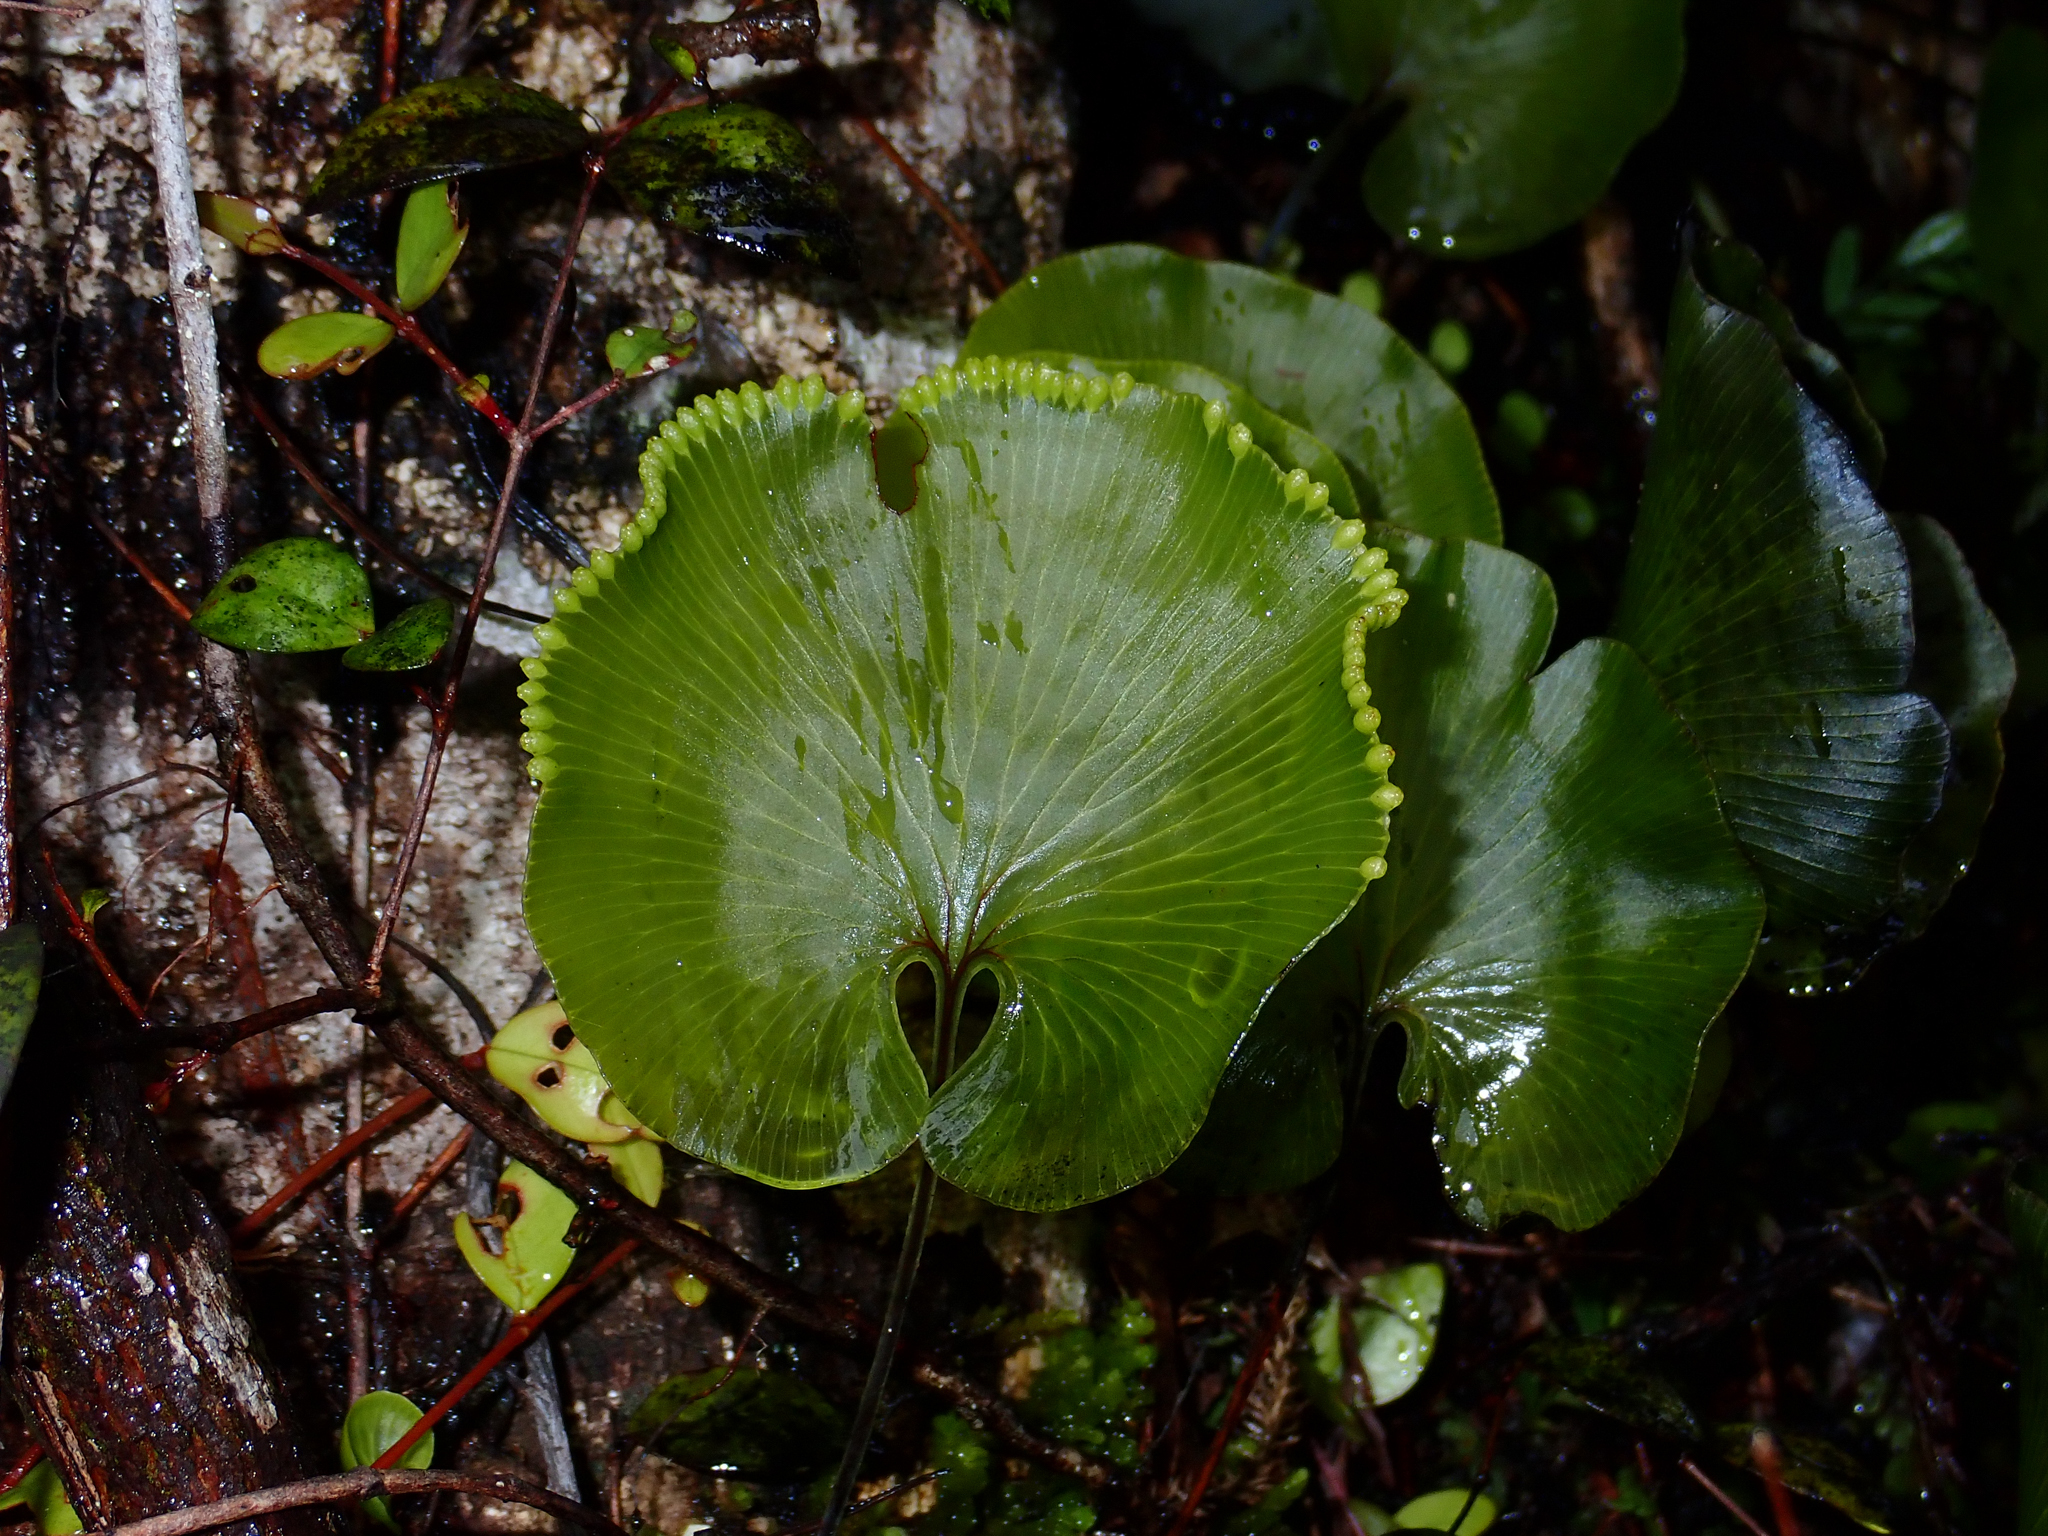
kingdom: Plantae
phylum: Tracheophyta
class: Polypodiopsida
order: Hymenophyllales
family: Hymenophyllaceae
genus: Hymenophyllum
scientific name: Hymenophyllum nephrophyllum
